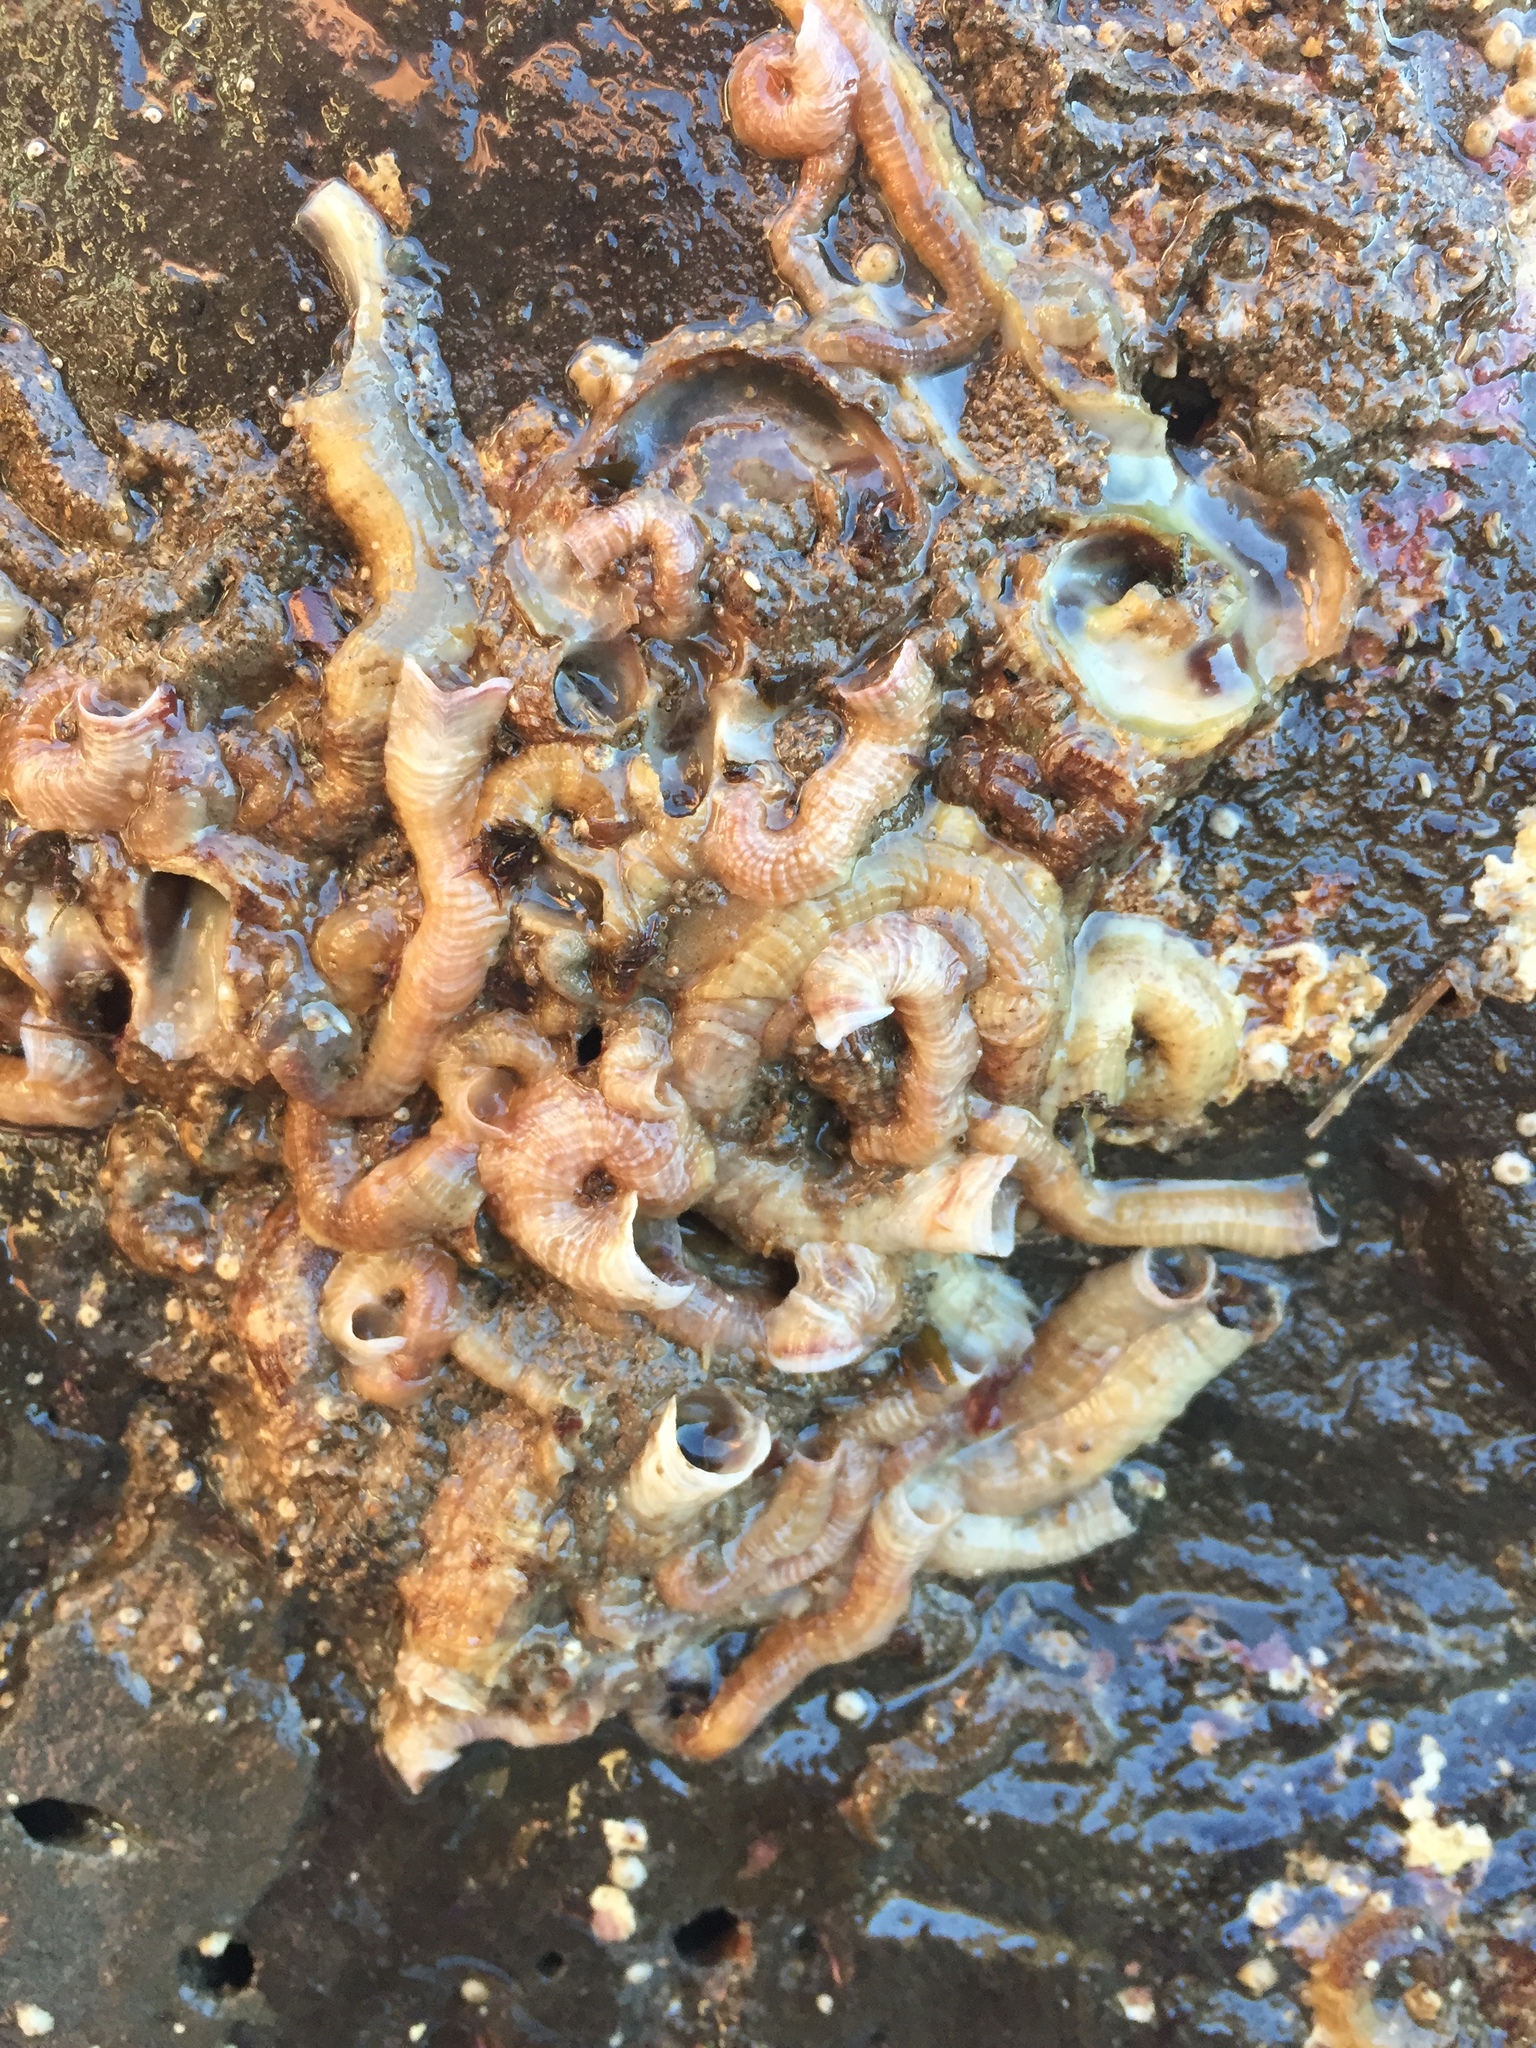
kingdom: Animalia
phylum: Mollusca
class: Gastropoda
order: Littorinimorpha
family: Vermetidae
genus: Thylacodes
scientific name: Thylacodes squamigerus
